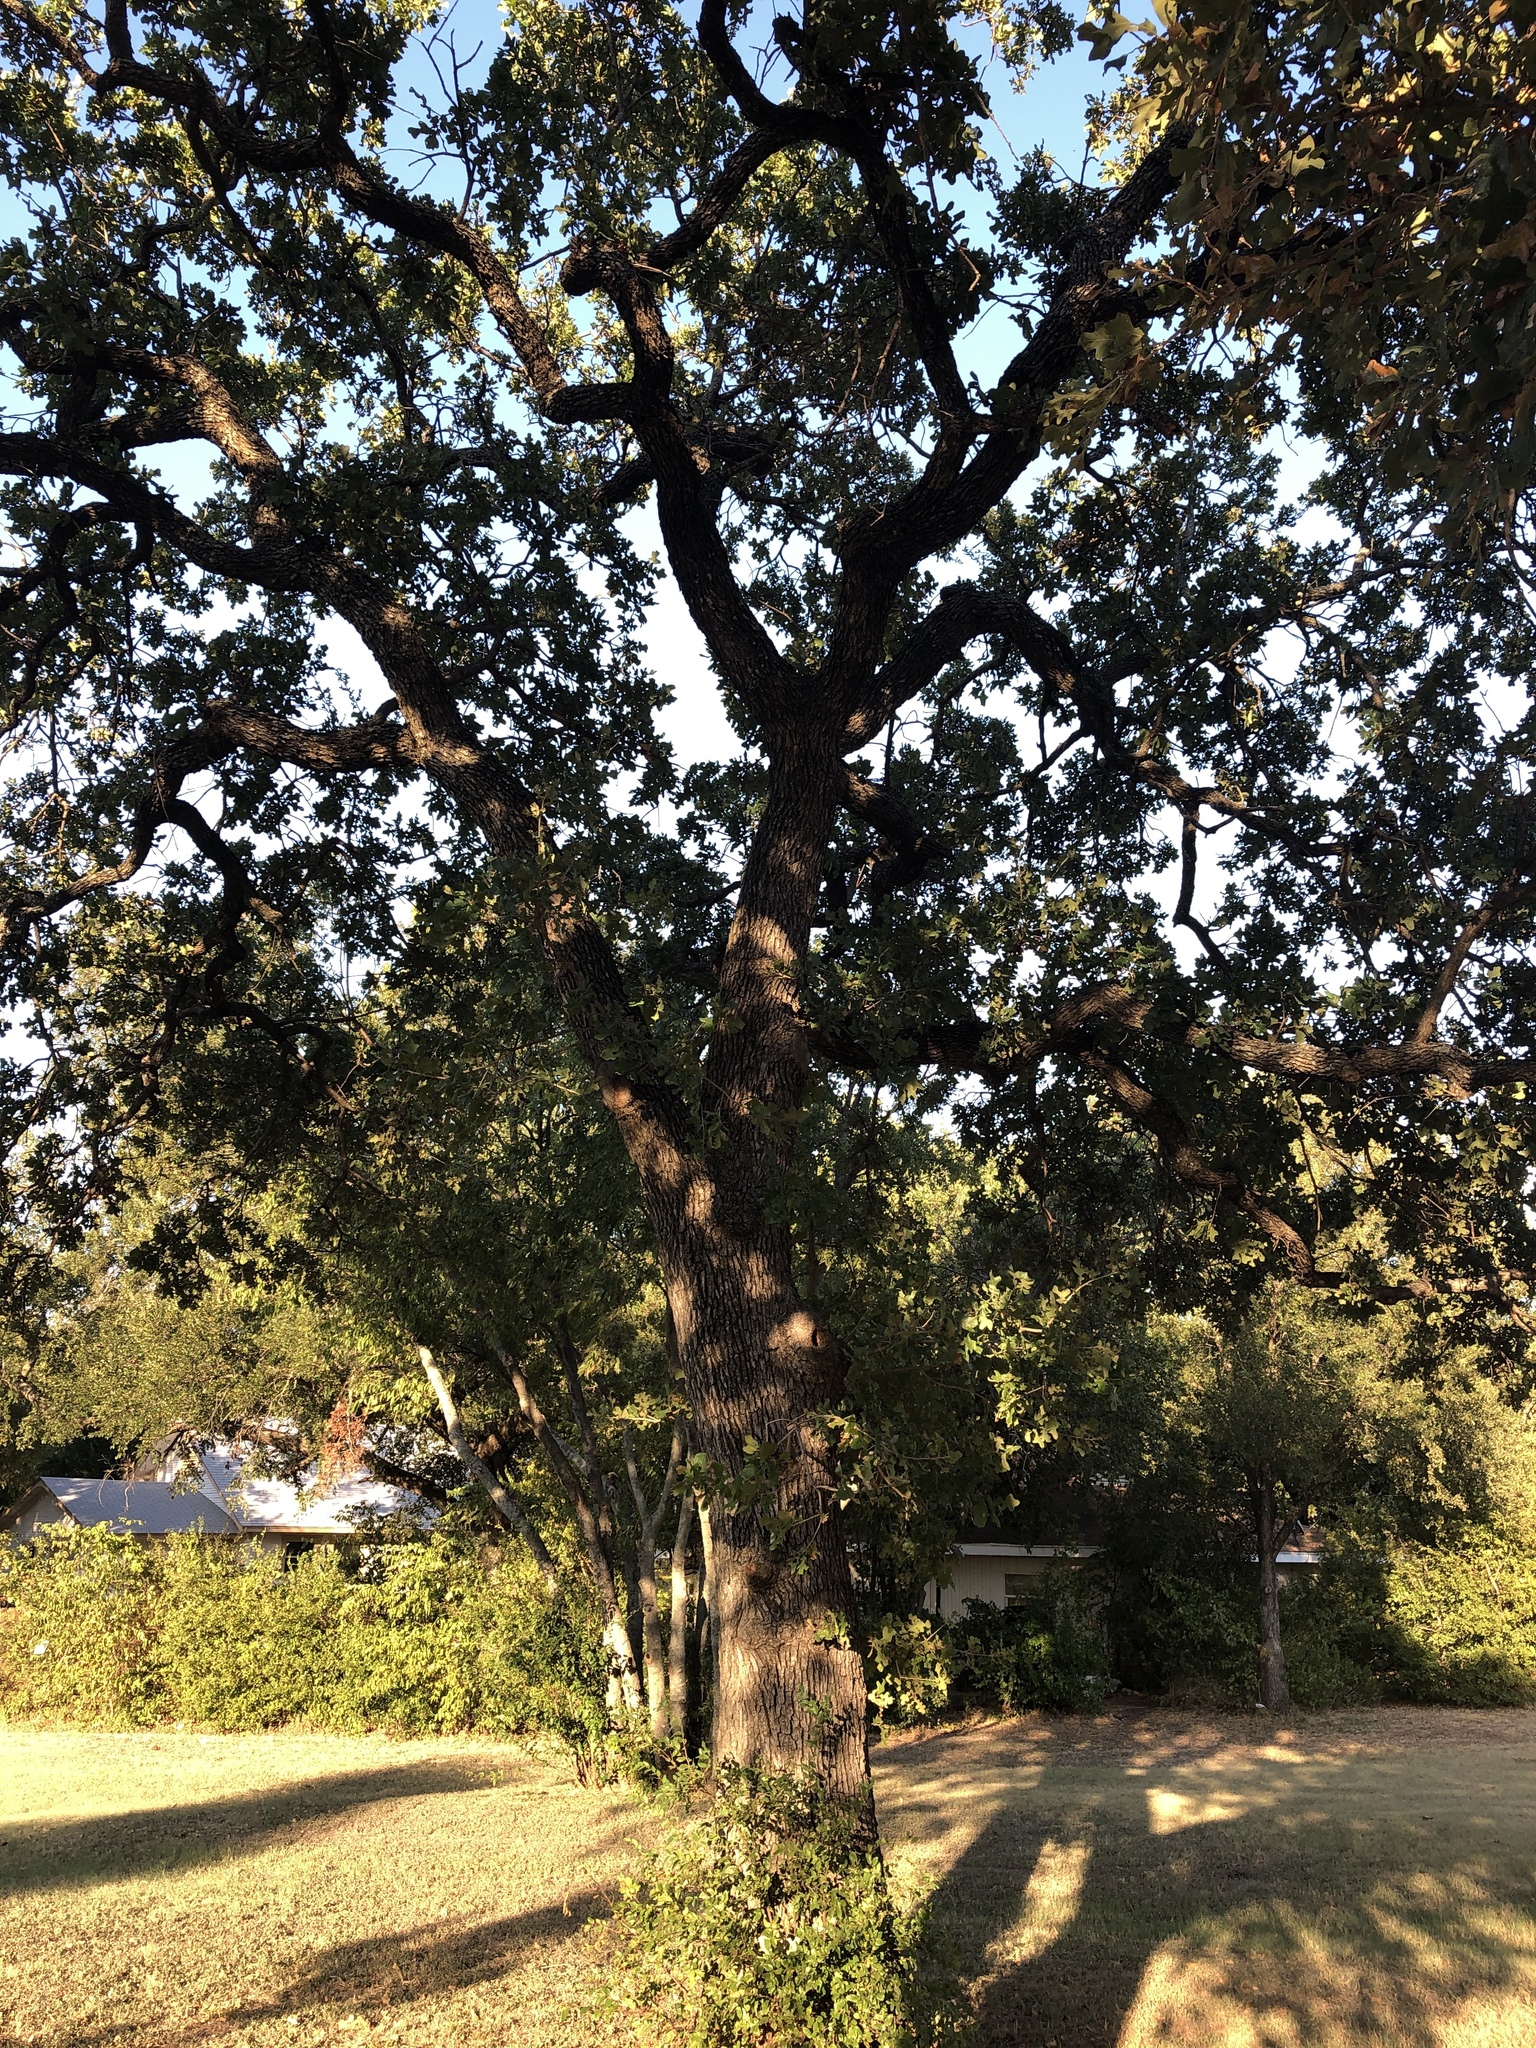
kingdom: Plantae
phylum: Tracheophyta
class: Magnoliopsida
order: Fagales
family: Fagaceae
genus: Quercus
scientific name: Quercus stellata
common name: Post oak
